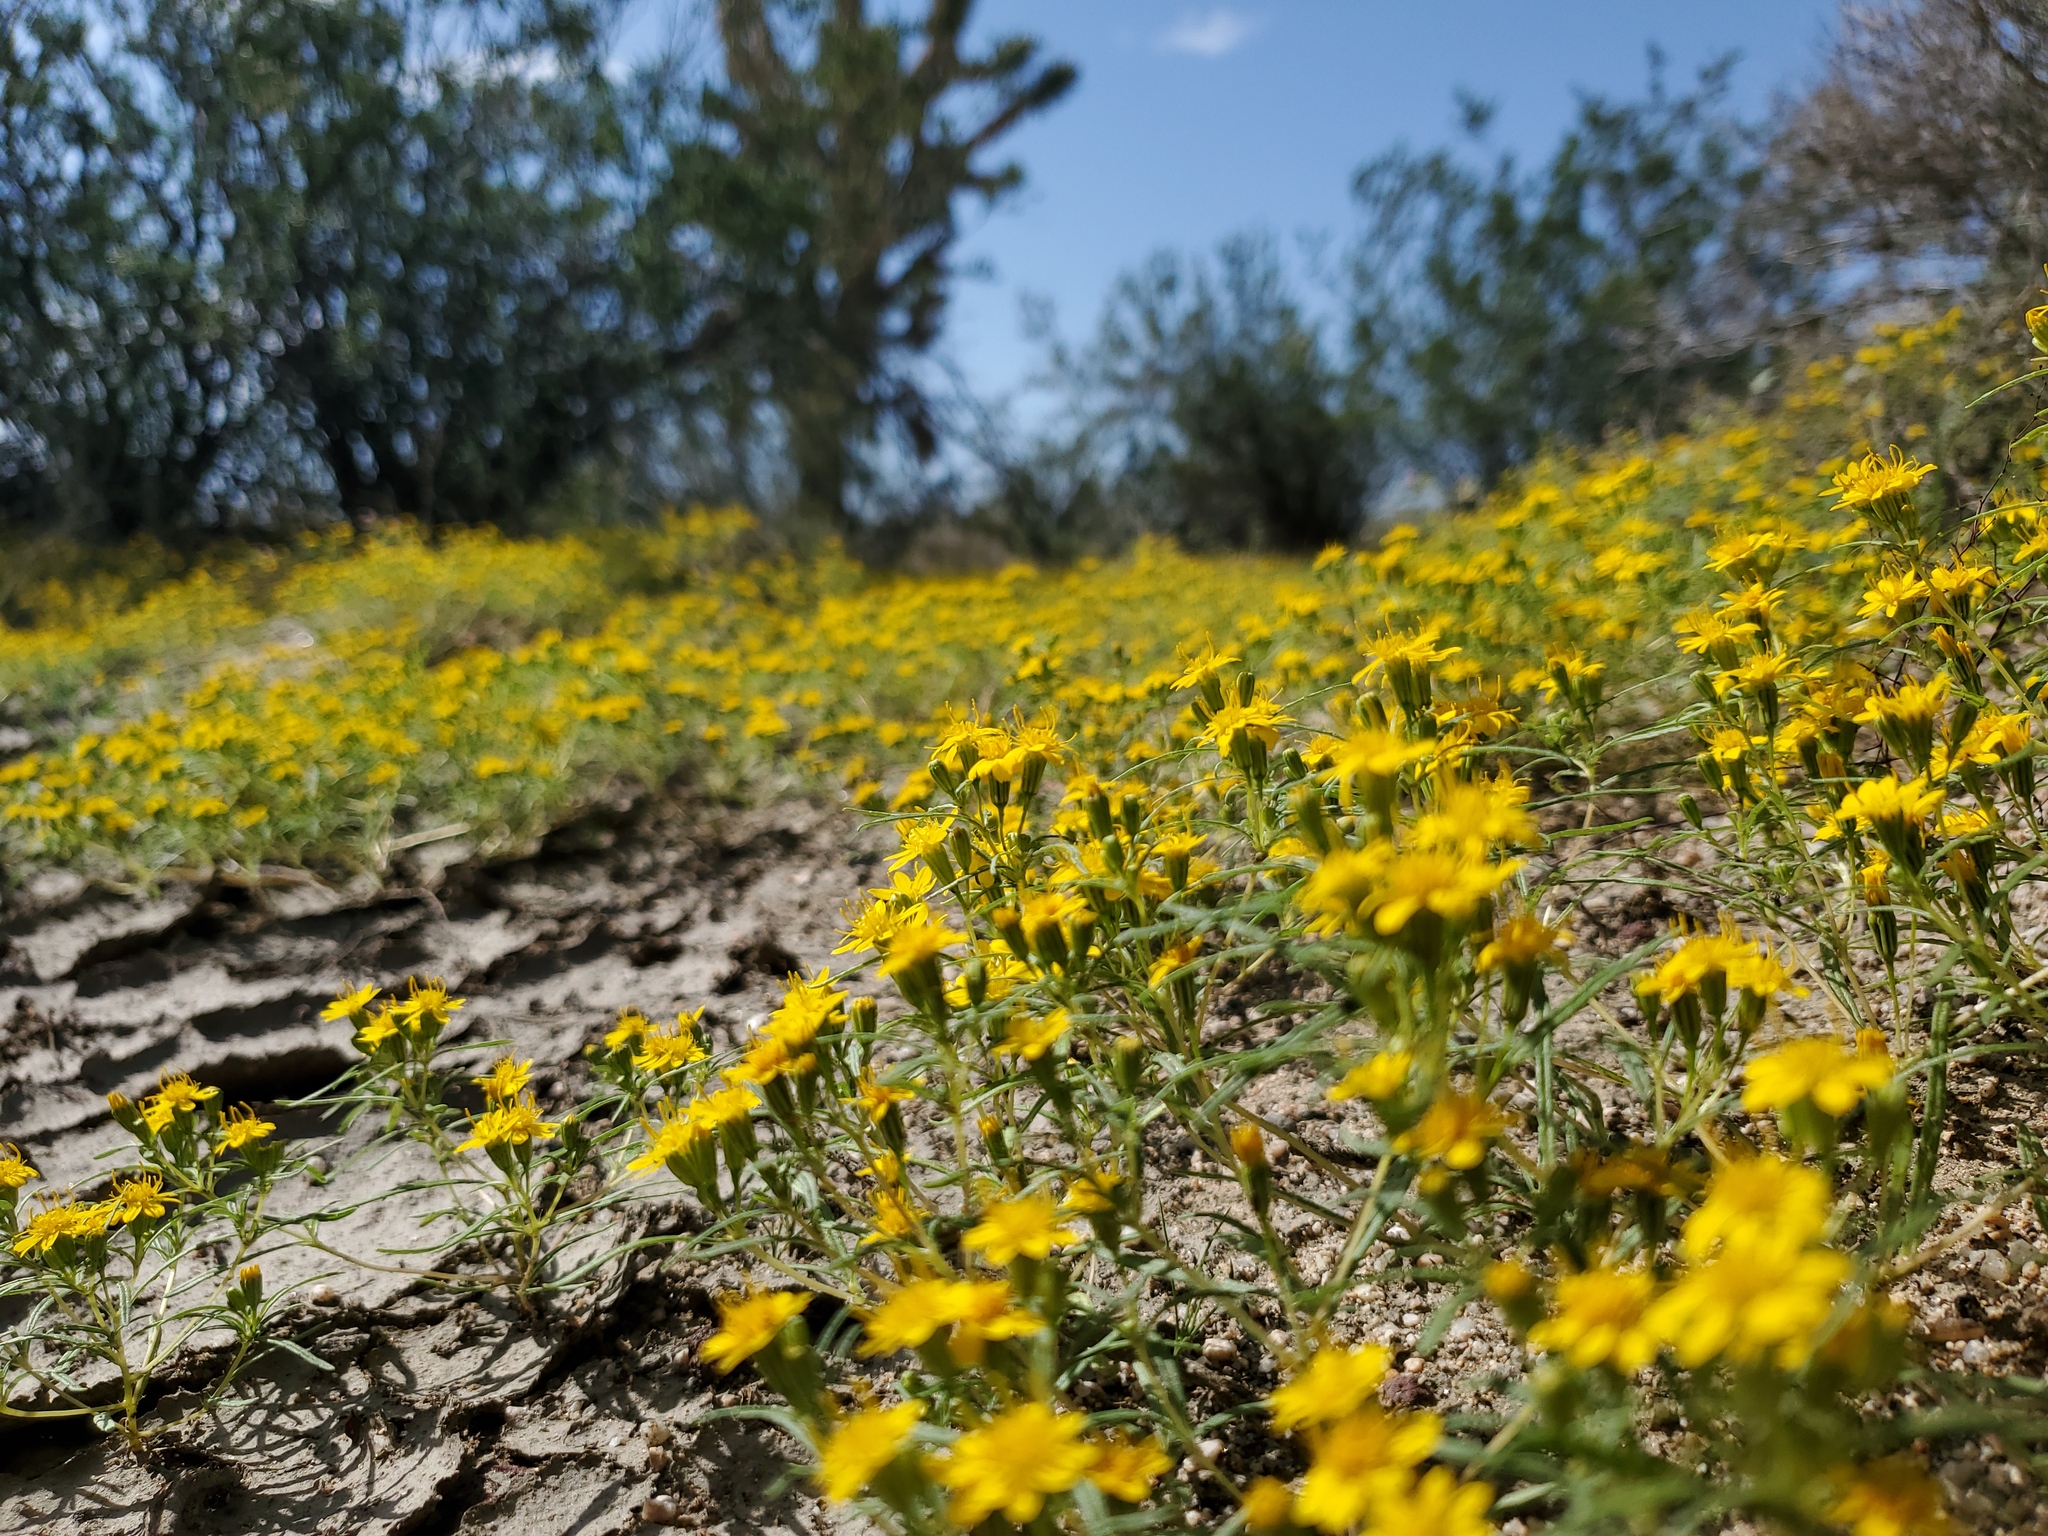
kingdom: Plantae
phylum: Tracheophyta
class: Magnoliopsida
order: Asterales
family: Asteraceae
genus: Pectis
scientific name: Pectis papposa
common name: Many-bristle chinchweed
